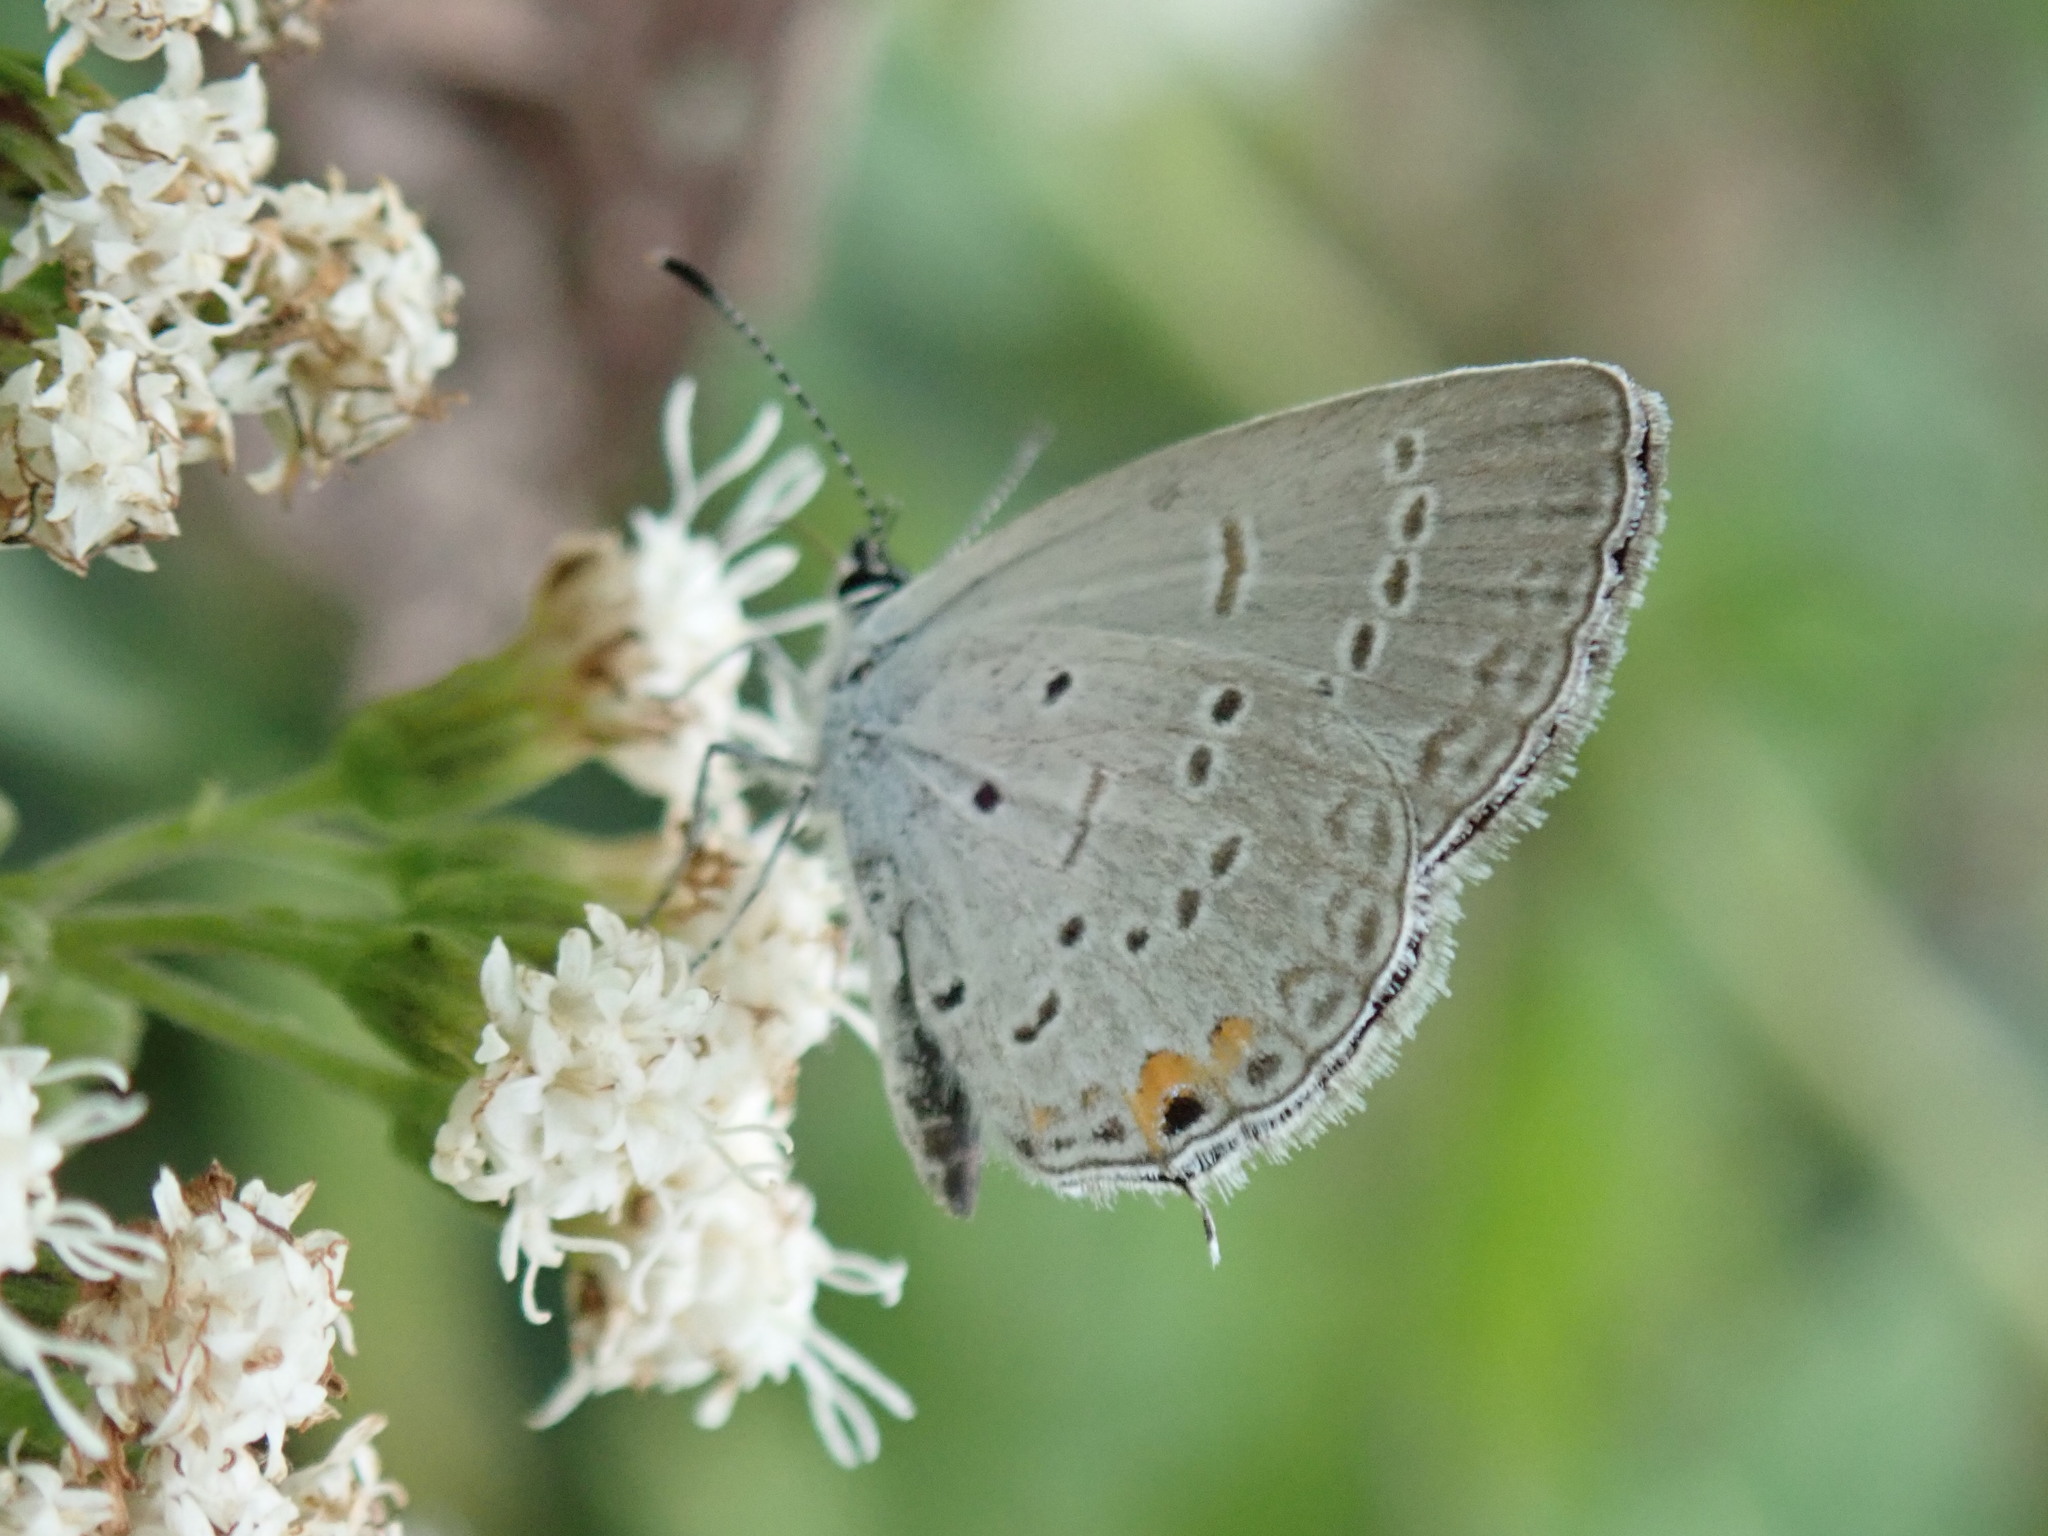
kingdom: Animalia
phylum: Arthropoda
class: Insecta
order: Lepidoptera
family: Lycaenidae
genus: Elkalyce
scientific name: Elkalyce comyntas
